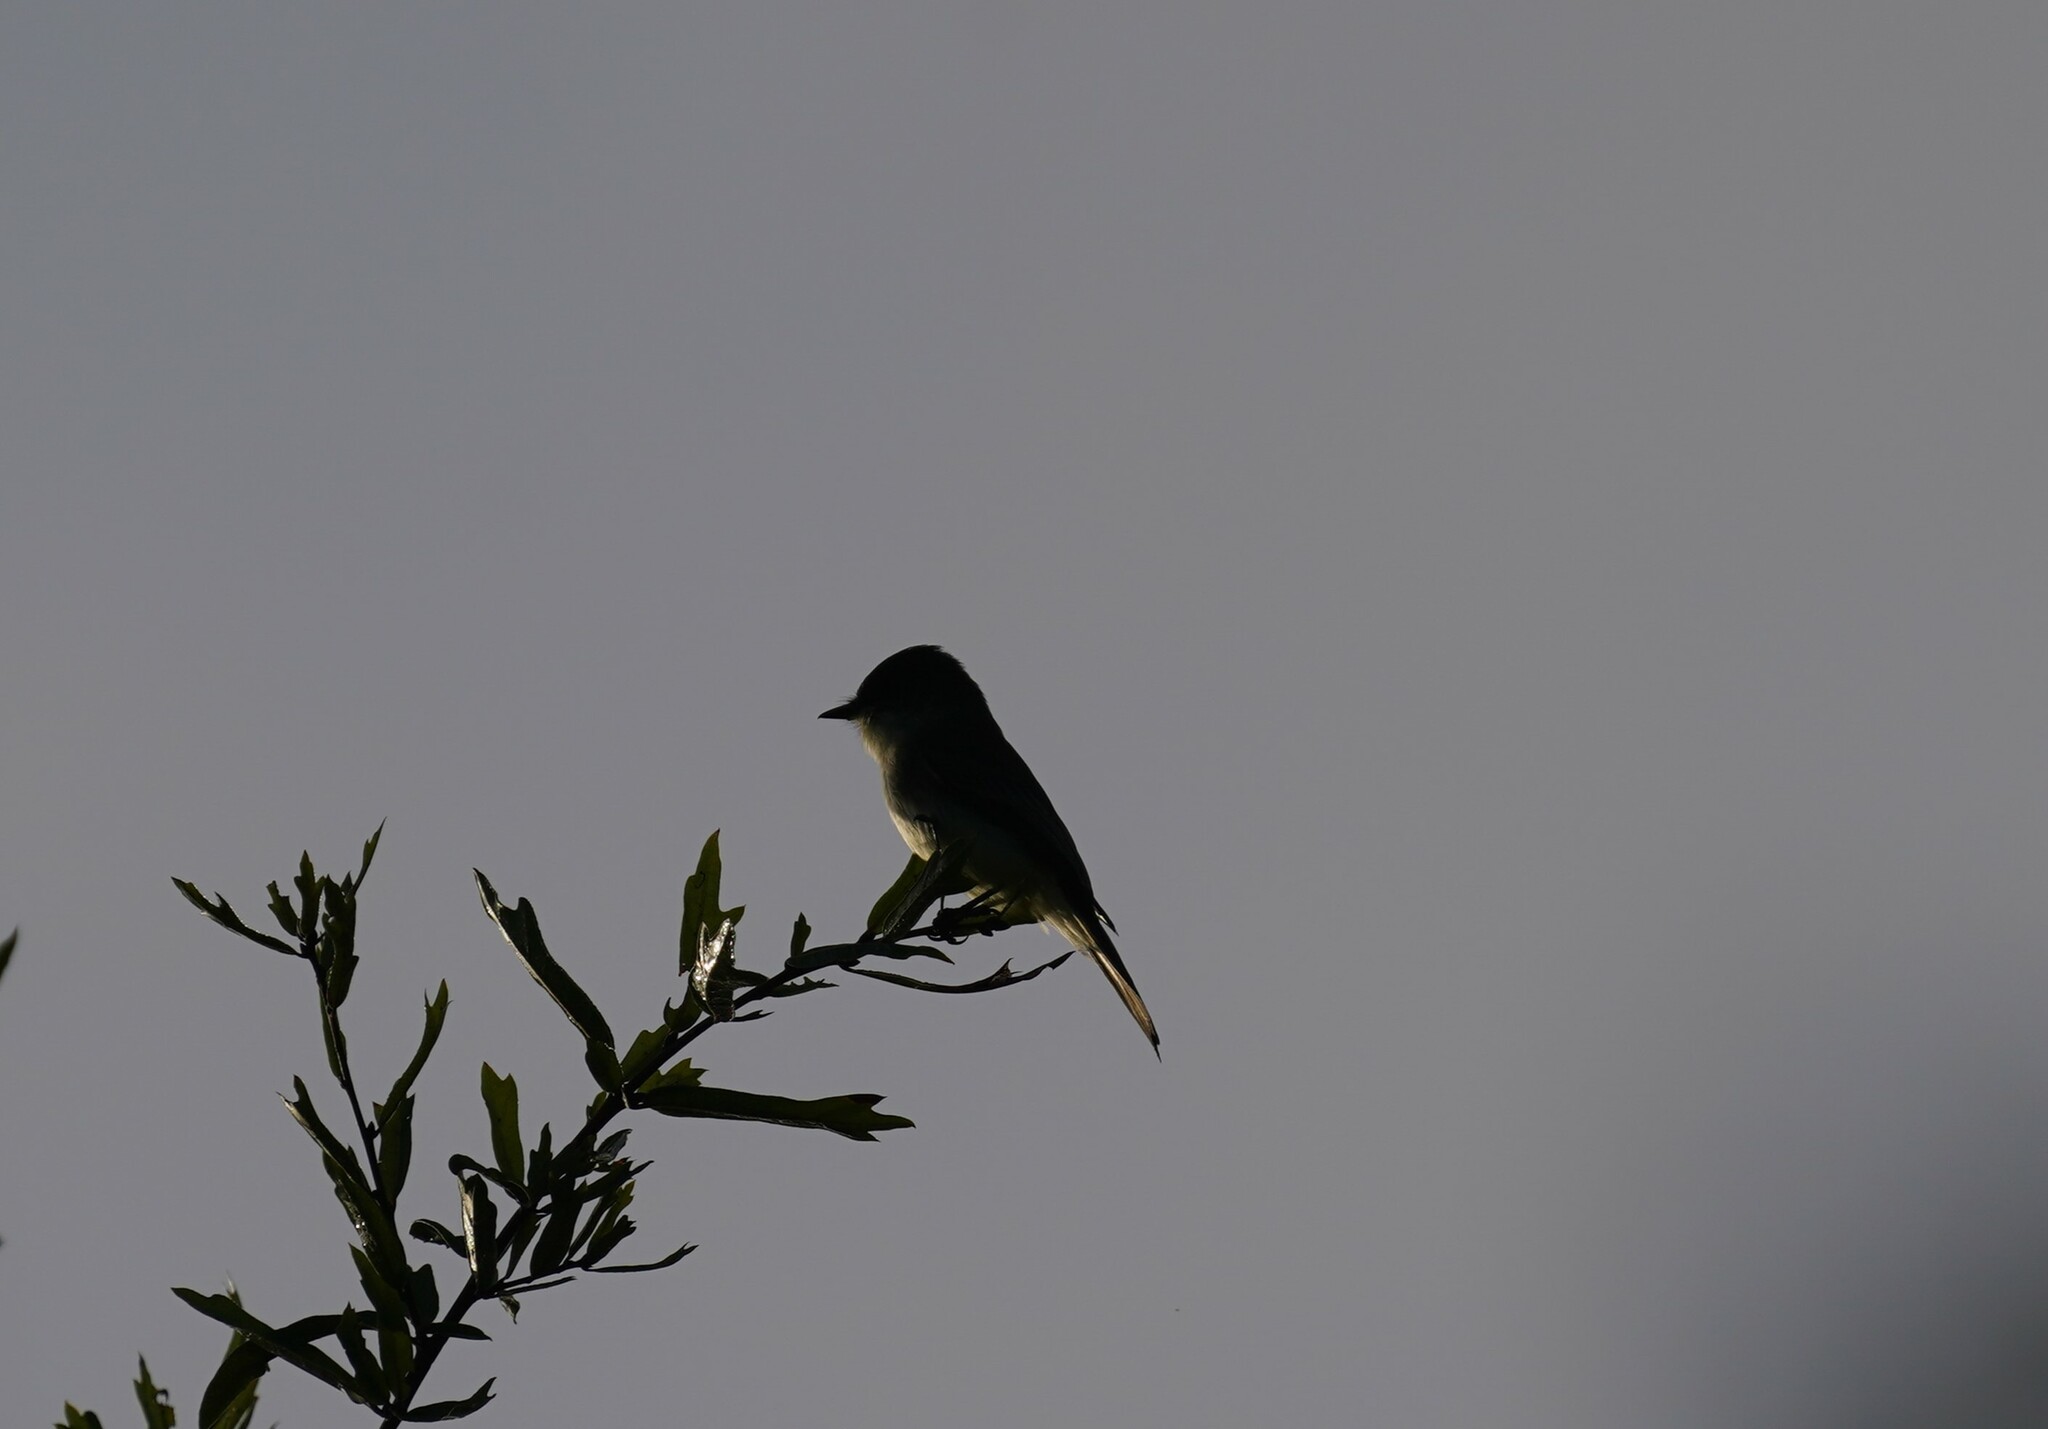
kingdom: Animalia
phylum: Chordata
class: Aves
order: Passeriformes
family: Tyrannidae
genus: Sayornis
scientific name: Sayornis phoebe
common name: Eastern phoebe
